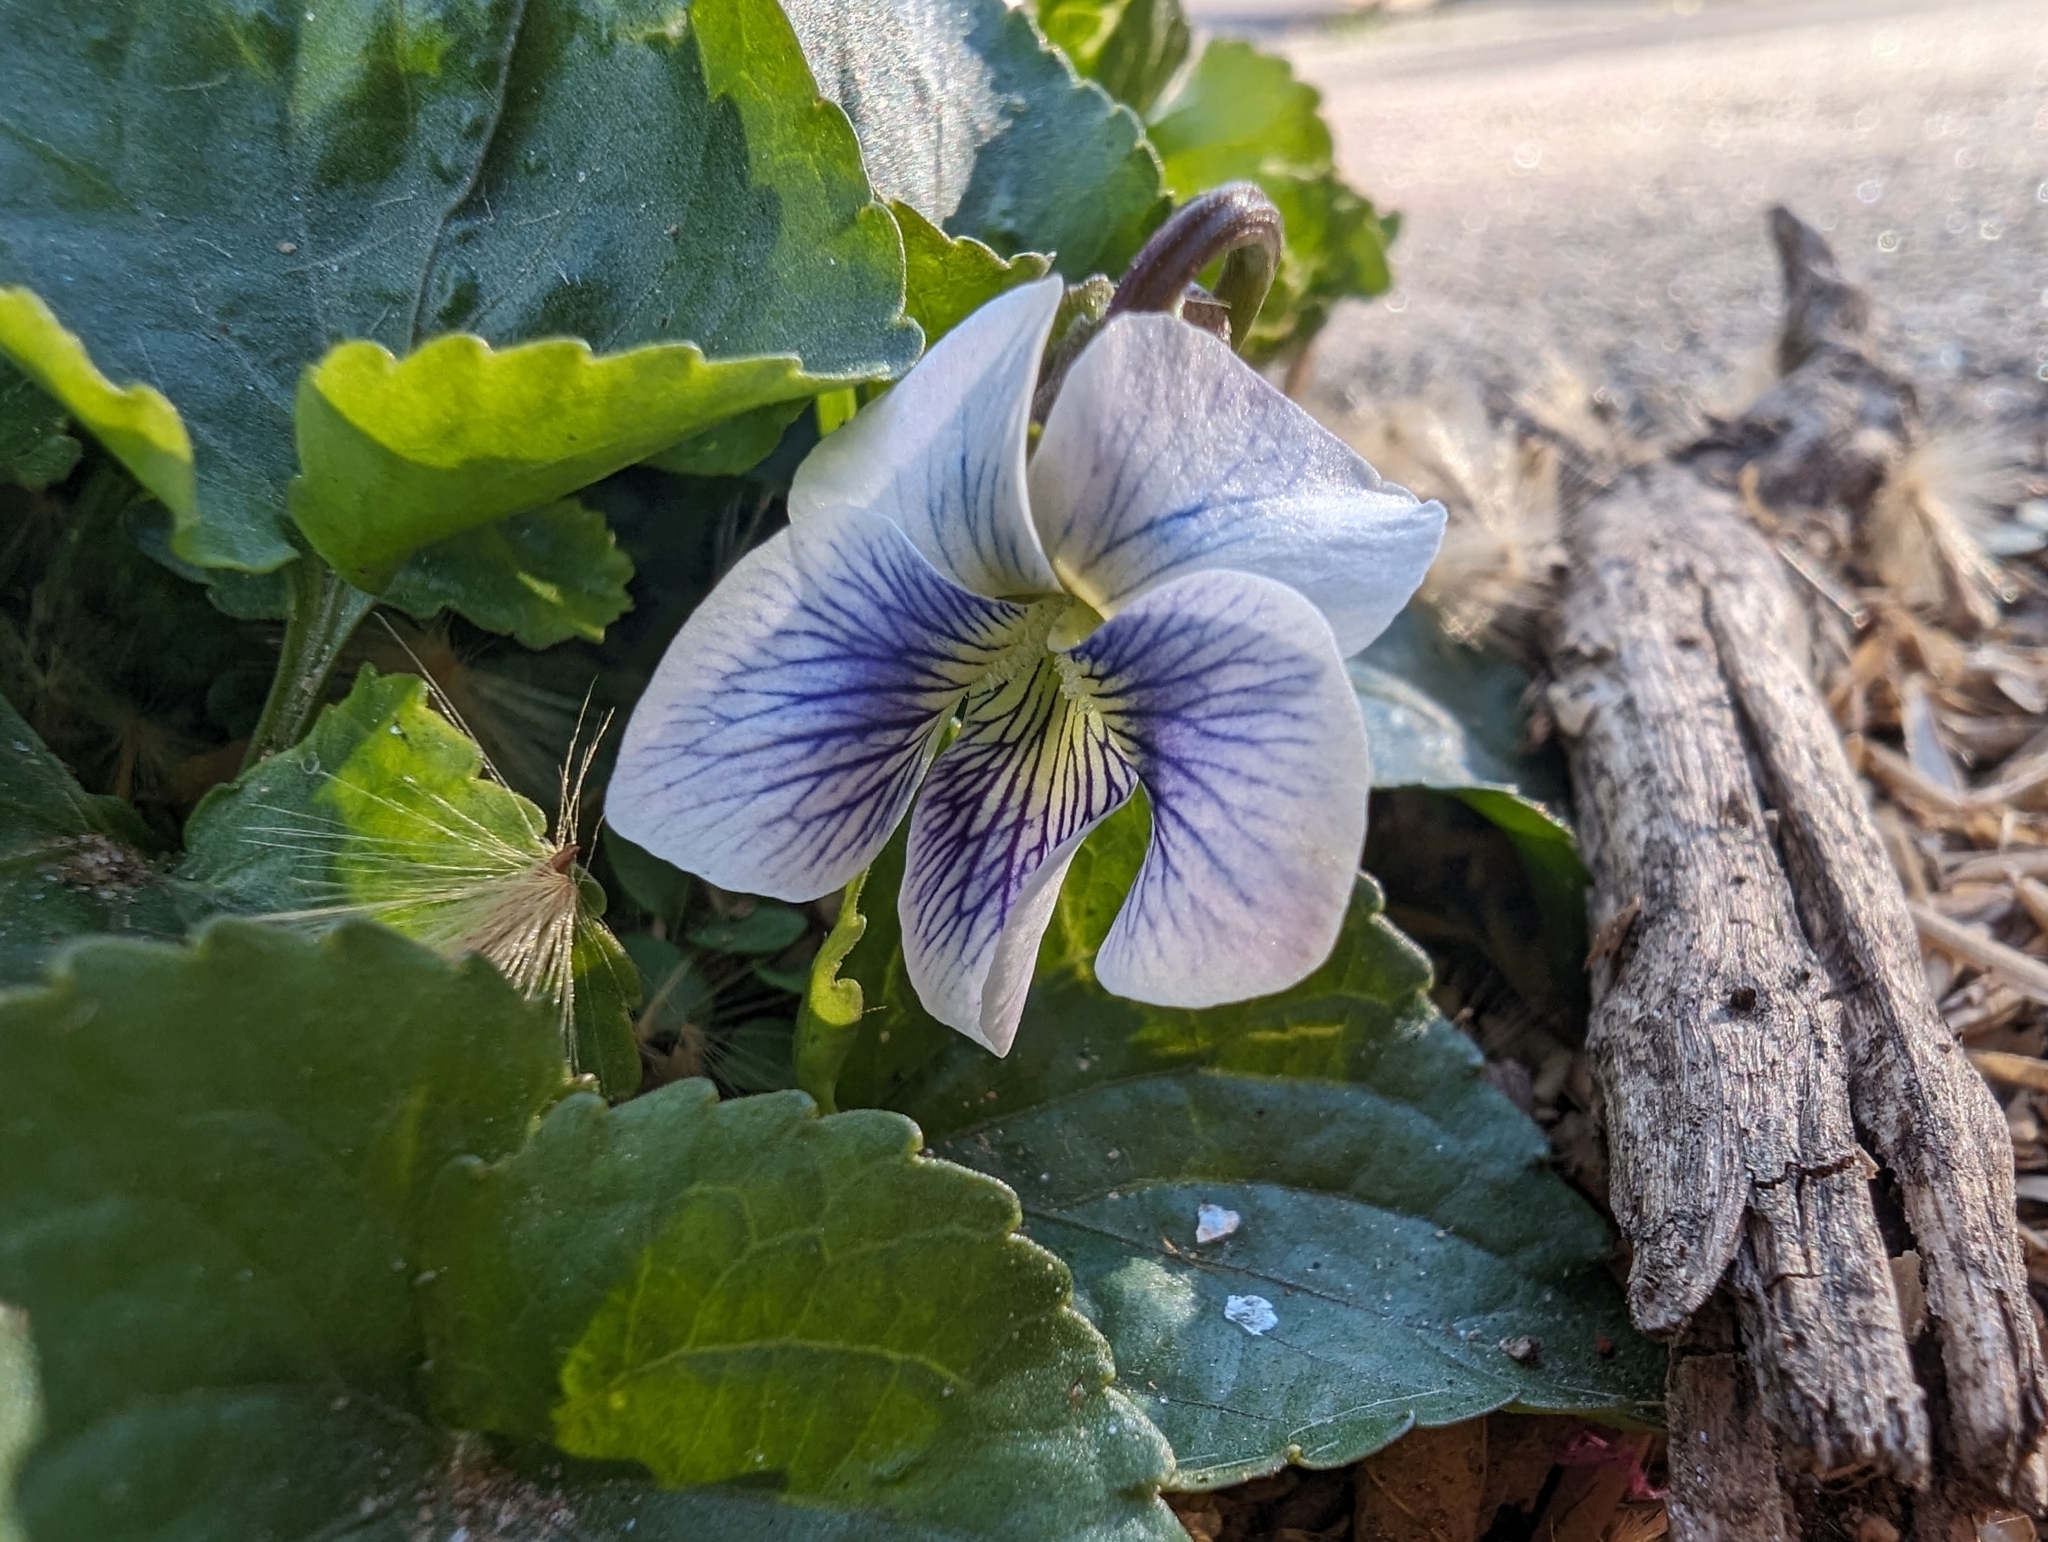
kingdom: Plantae
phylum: Tracheophyta
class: Magnoliopsida
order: Malpighiales
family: Violaceae
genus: Viola
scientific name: Viola sororia
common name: Dooryard violet
